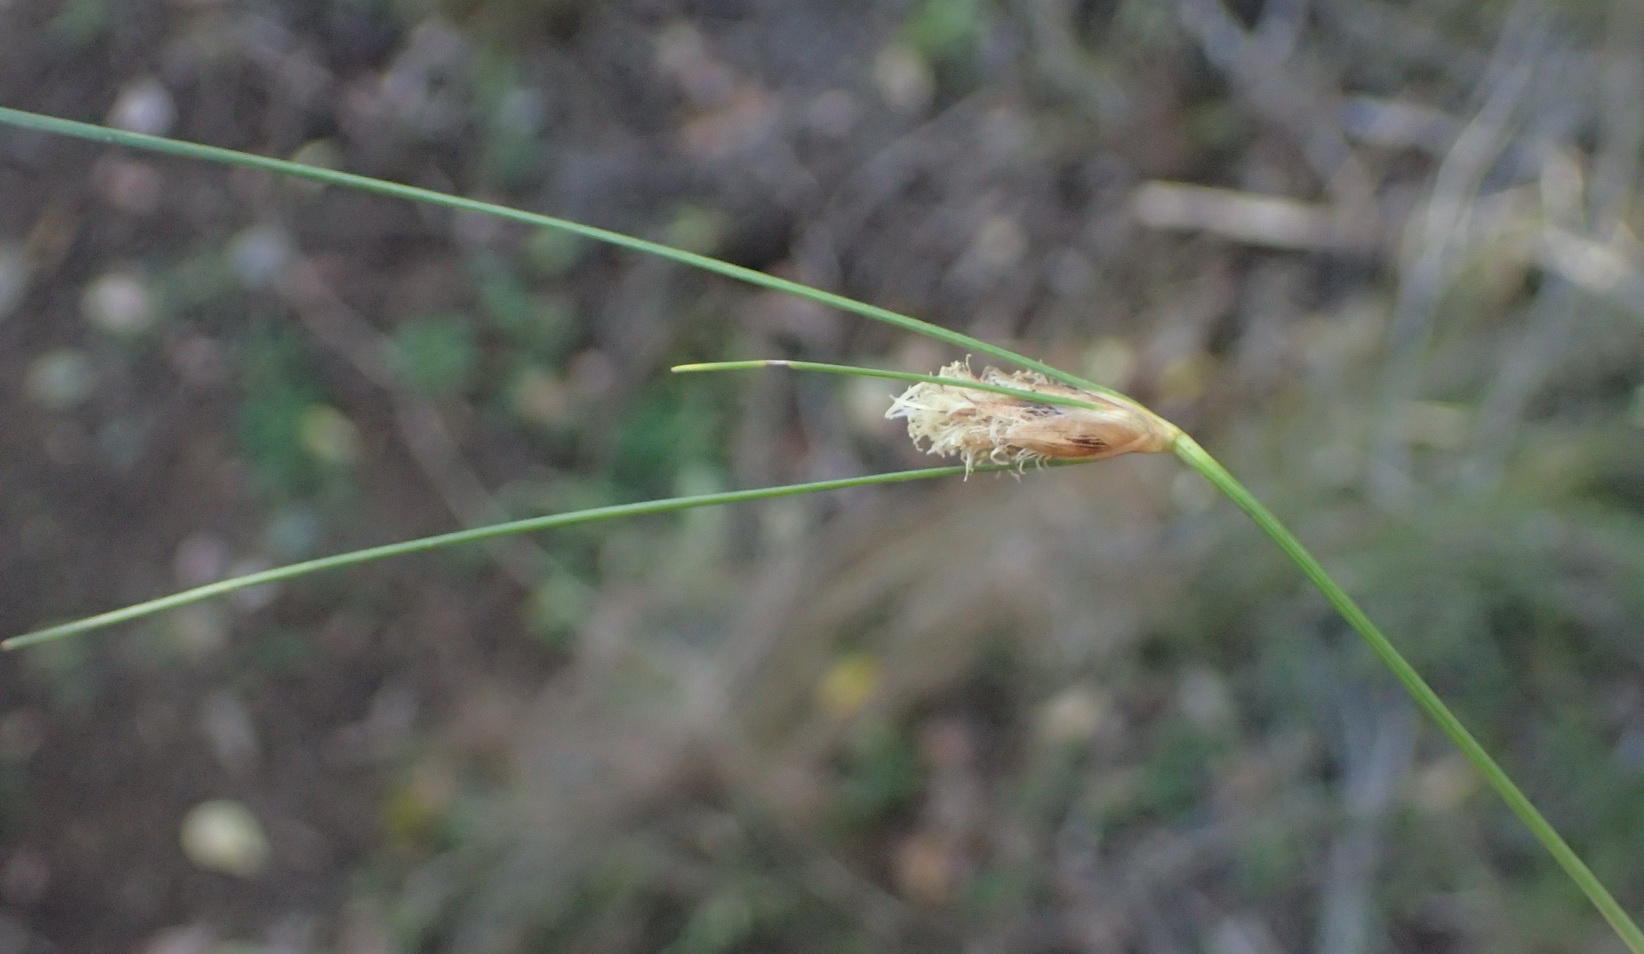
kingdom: Plantae
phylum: Tracheophyta
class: Liliopsida
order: Poales
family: Cyperaceae
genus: Ficinia
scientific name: Ficinia nigrescens
